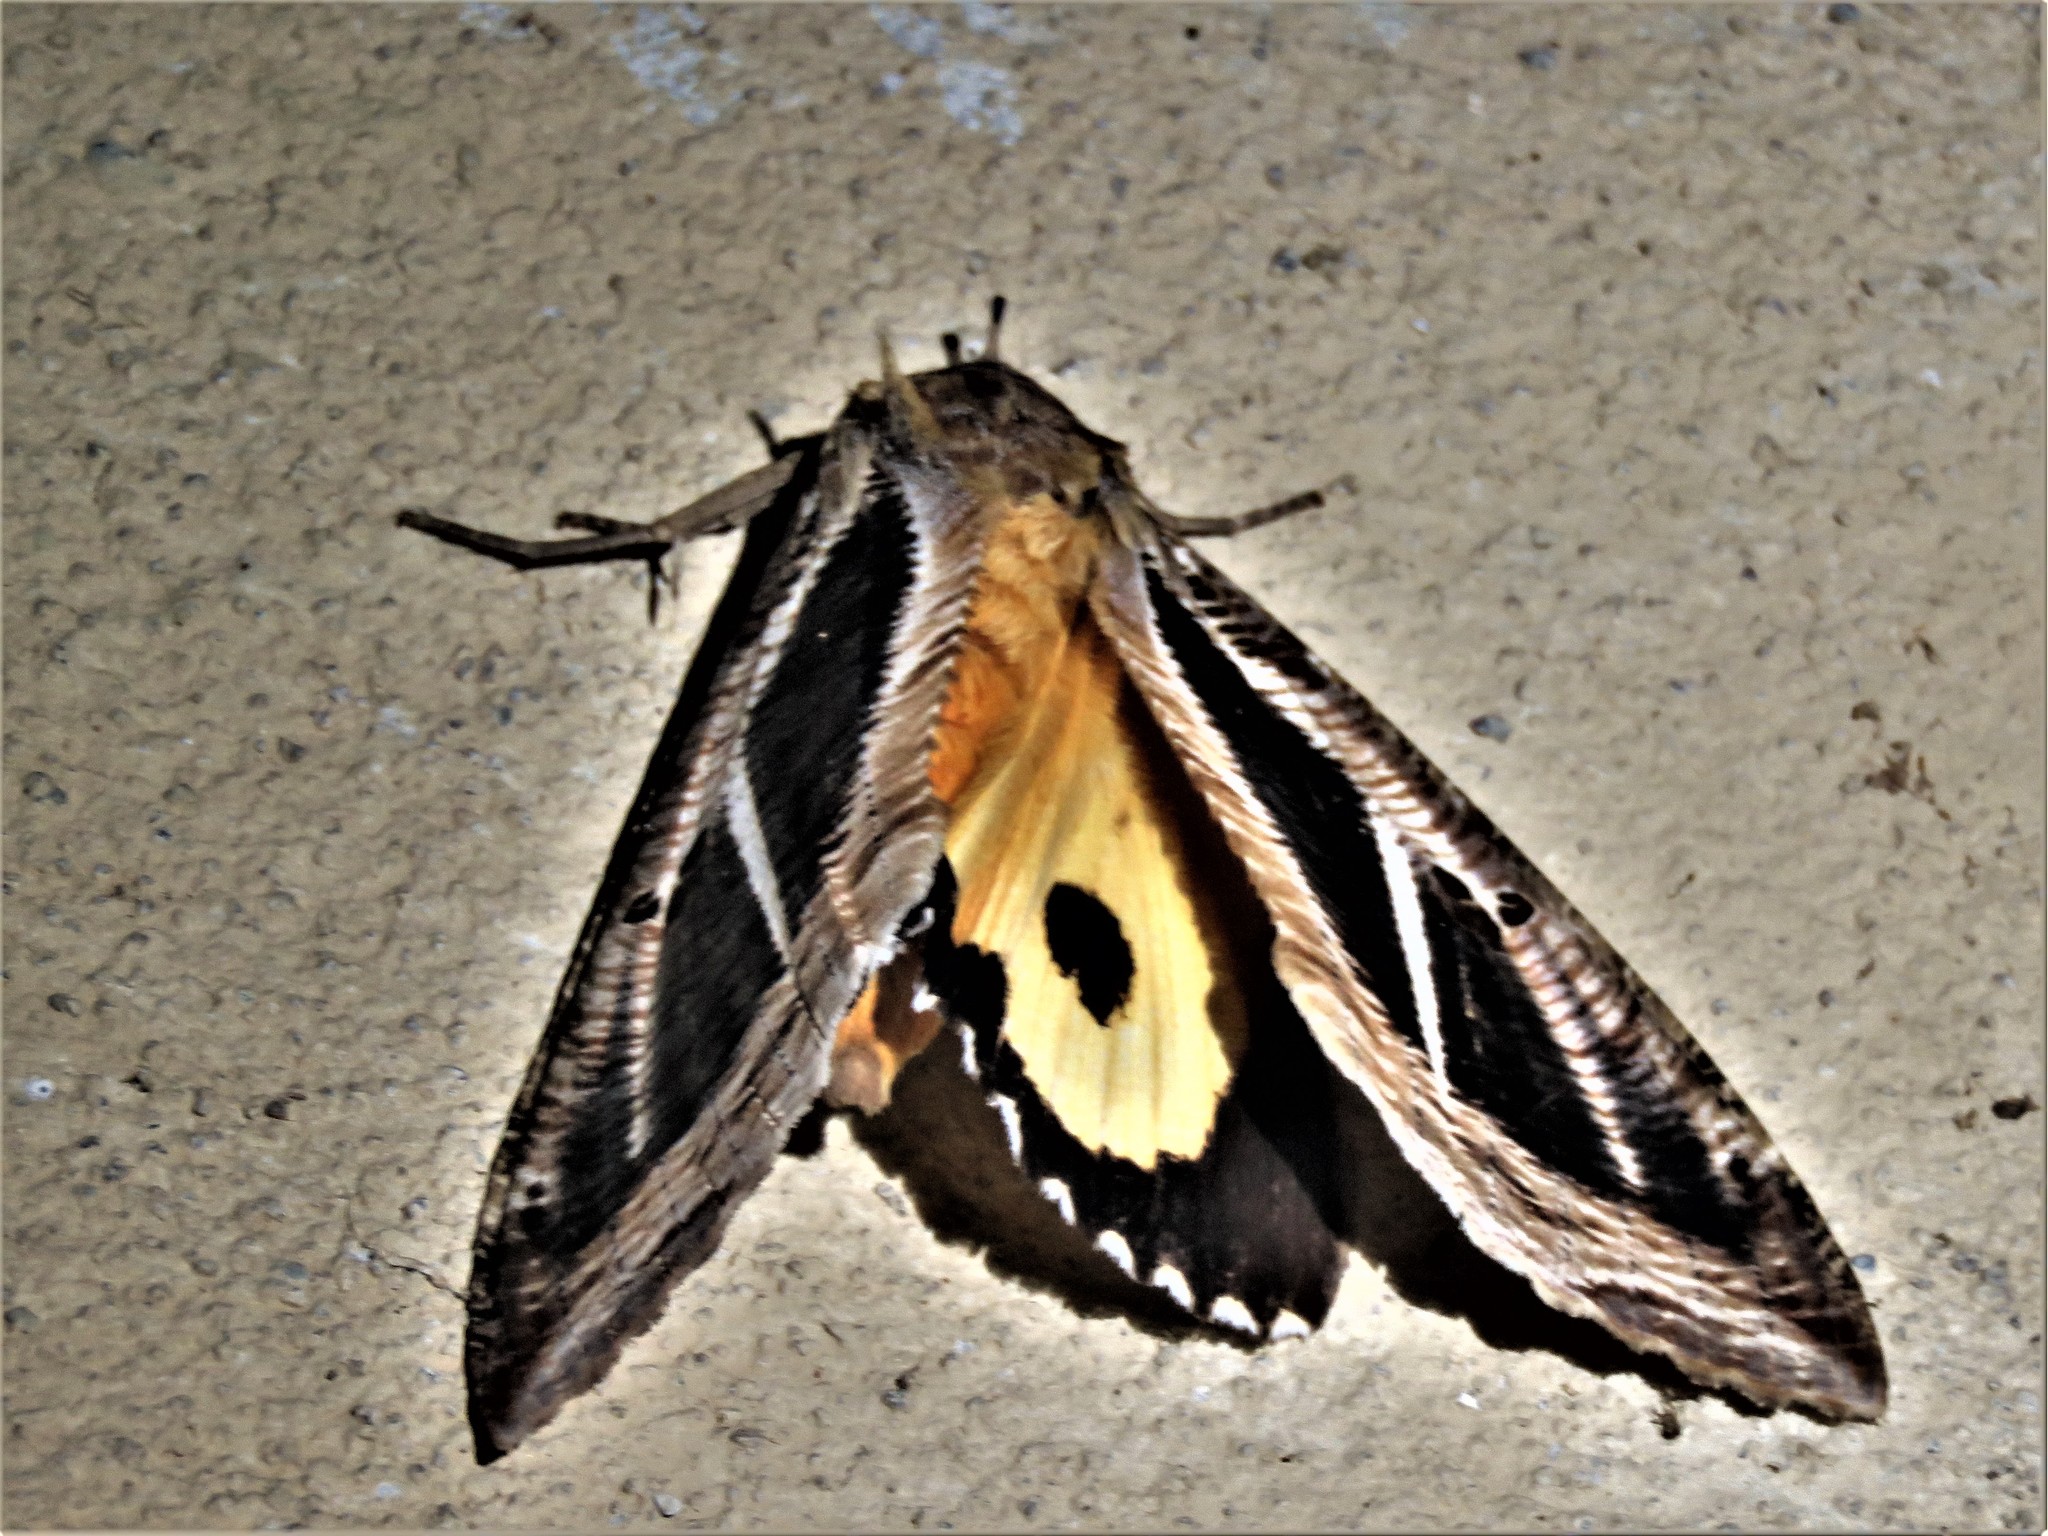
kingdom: Animalia
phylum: Arthropoda
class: Insecta
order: Lepidoptera
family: Erebidae
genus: Eudocima
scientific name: Eudocima apta
